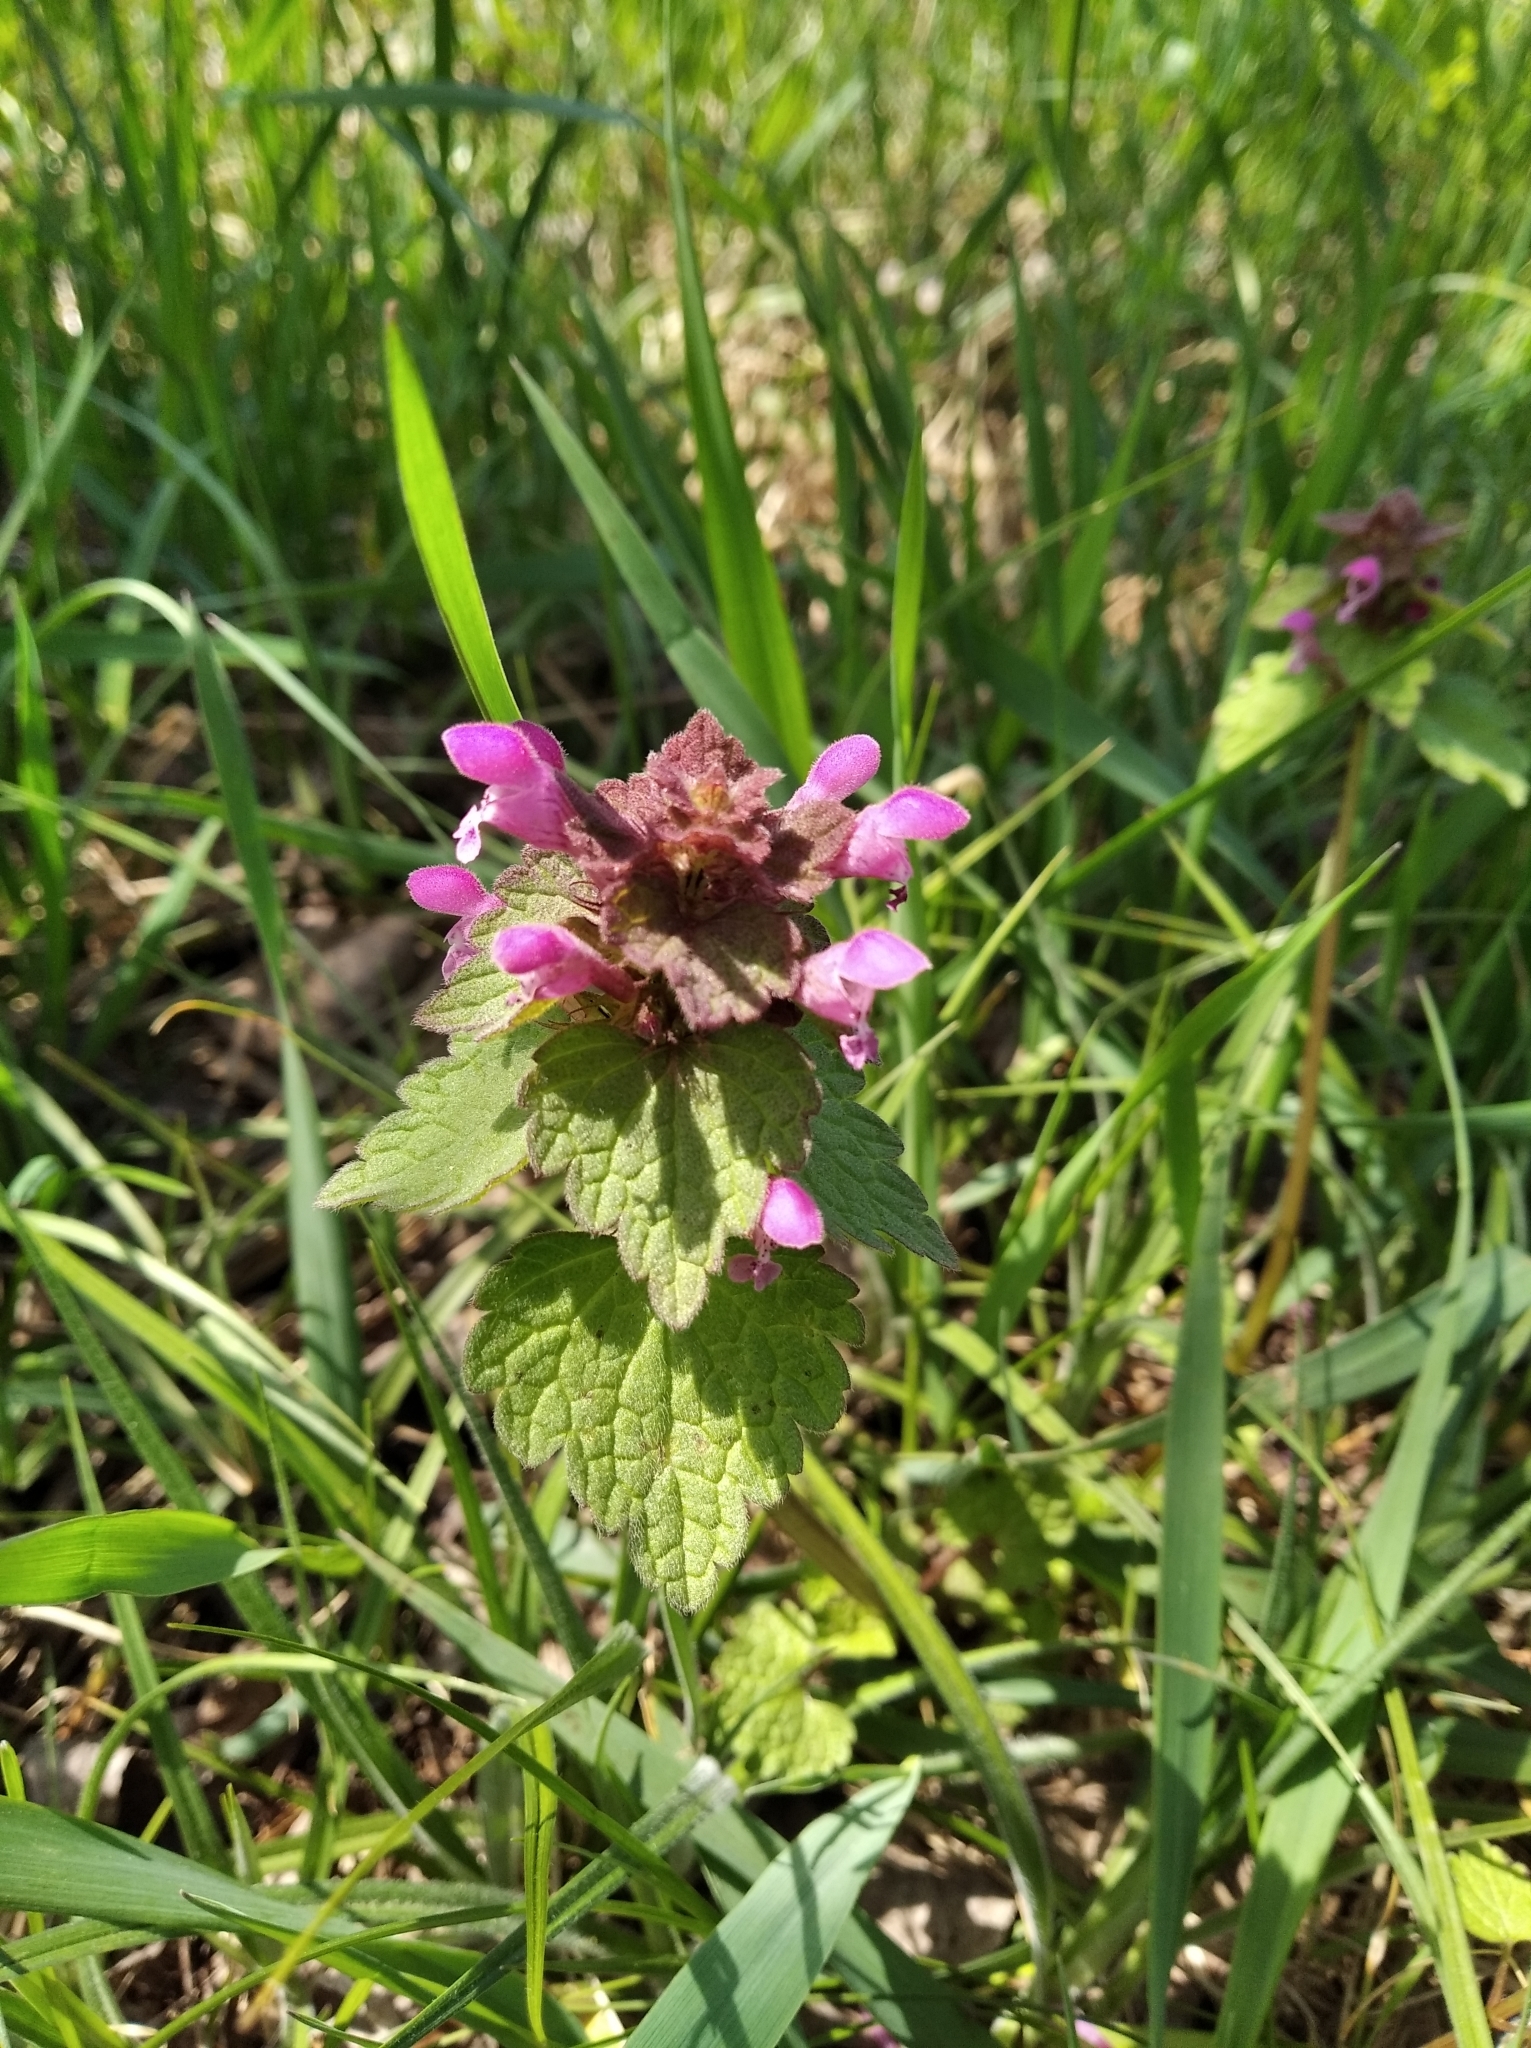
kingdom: Plantae
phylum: Tracheophyta
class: Magnoliopsida
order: Lamiales
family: Lamiaceae
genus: Lamium
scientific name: Lamium purpureum
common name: Red dead-nettle
